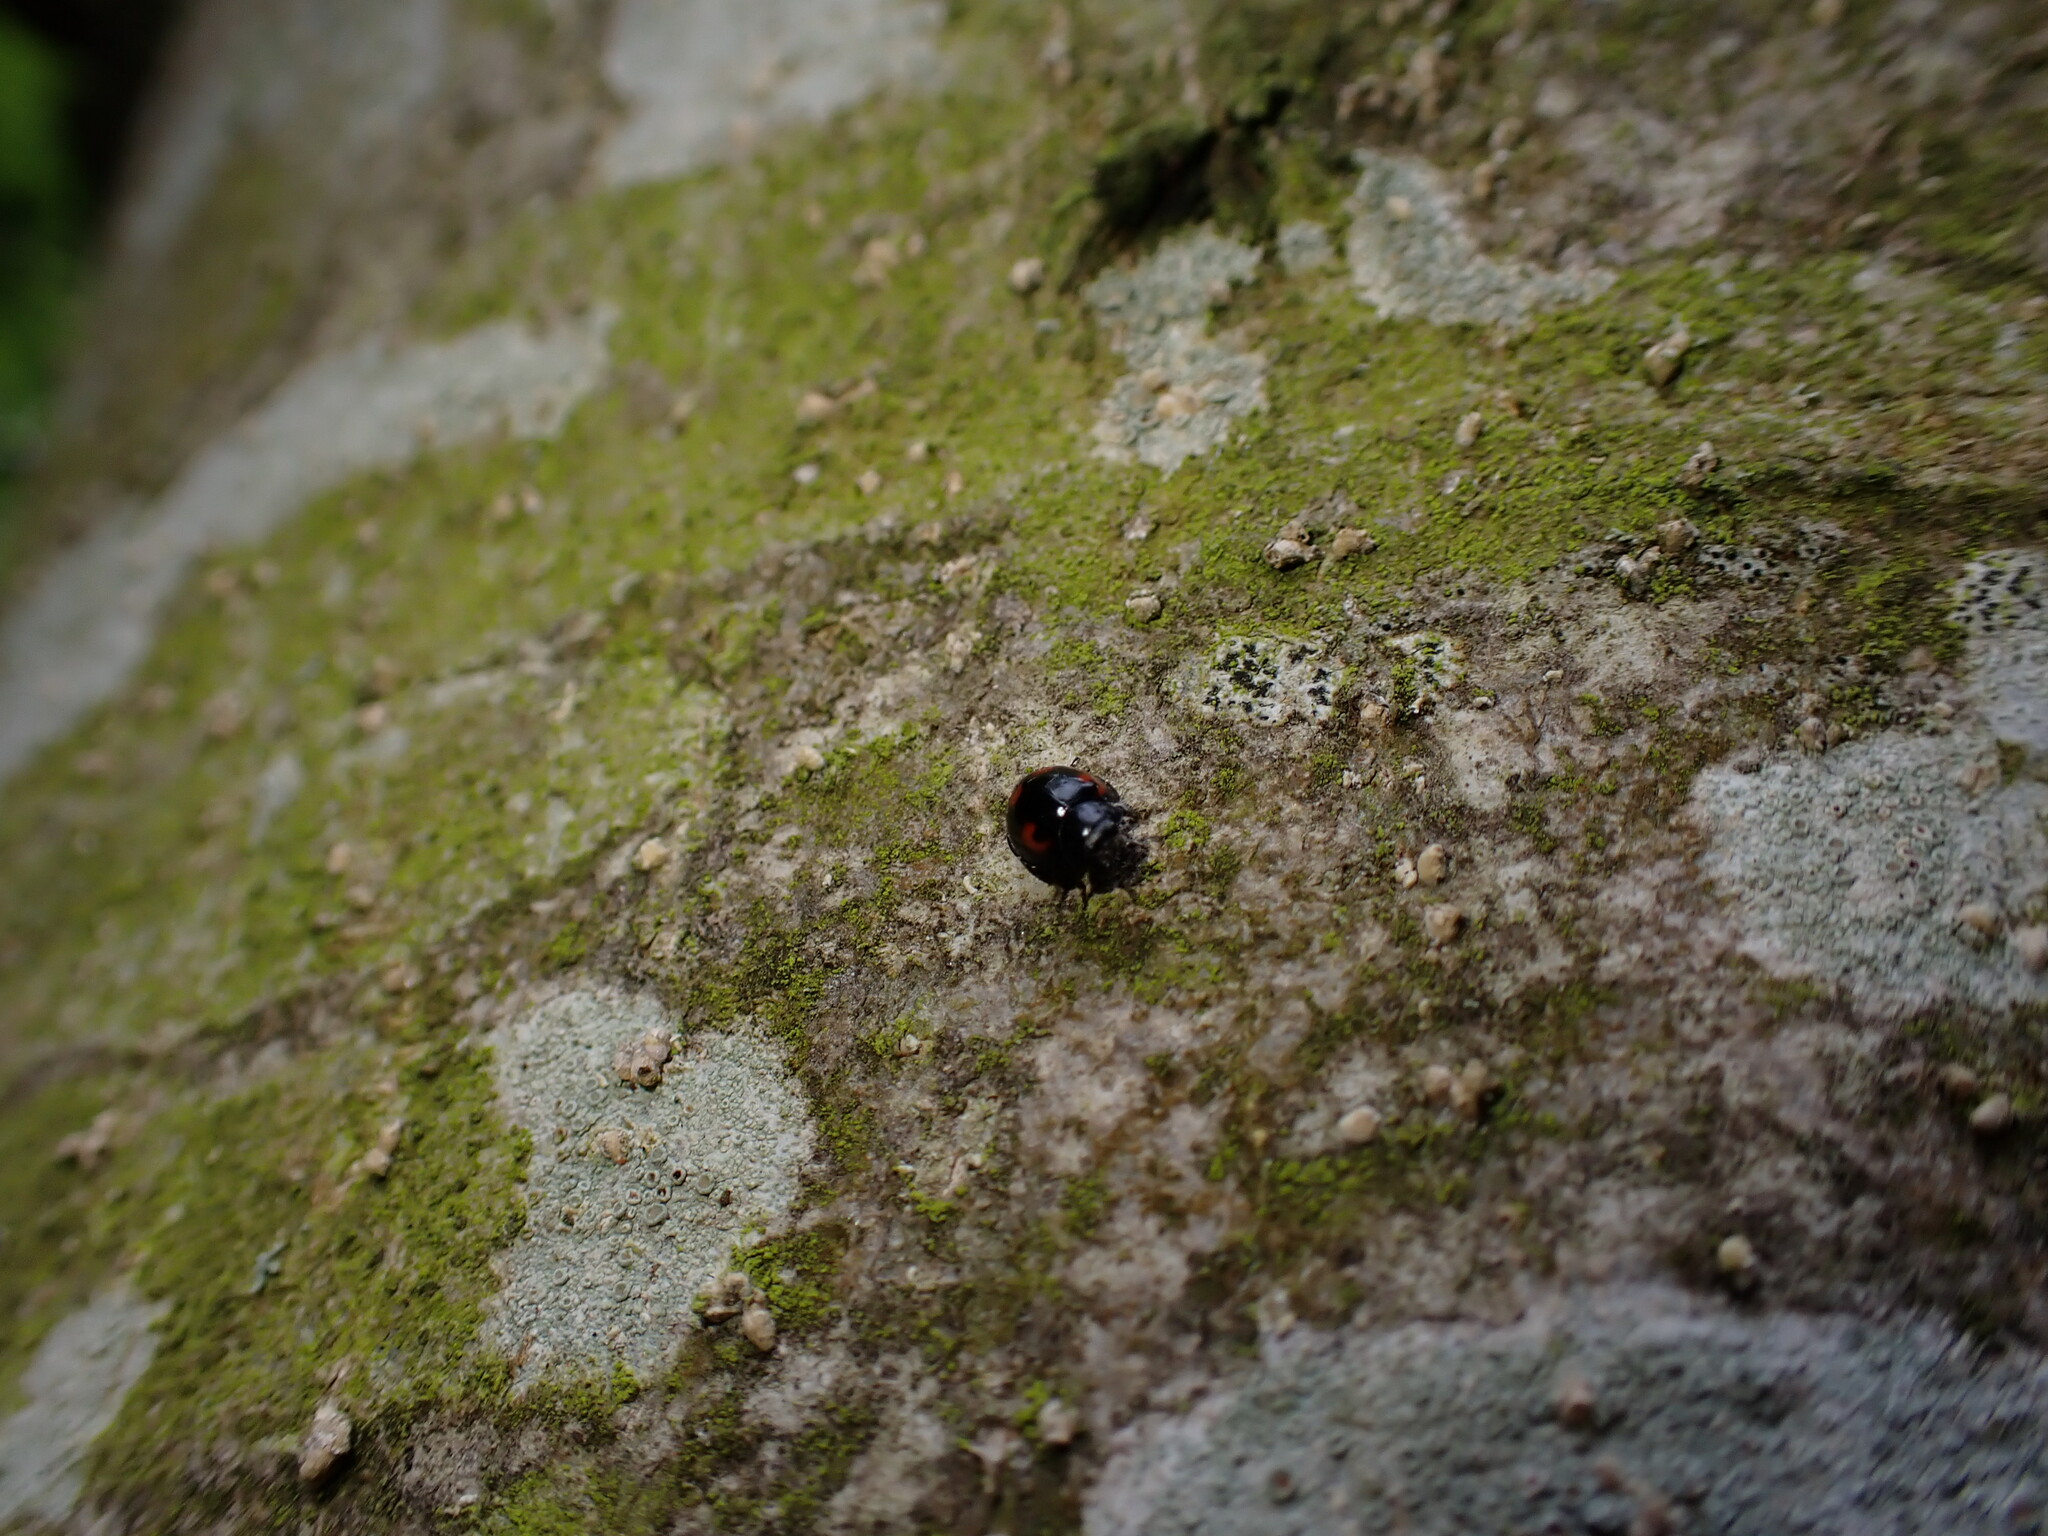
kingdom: Animalia
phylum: Arthropoda
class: Insecta
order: Coleoptera
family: Coccinellidae
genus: Brumus
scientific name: Brumus quadripustulatus
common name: Ladybird beetle
